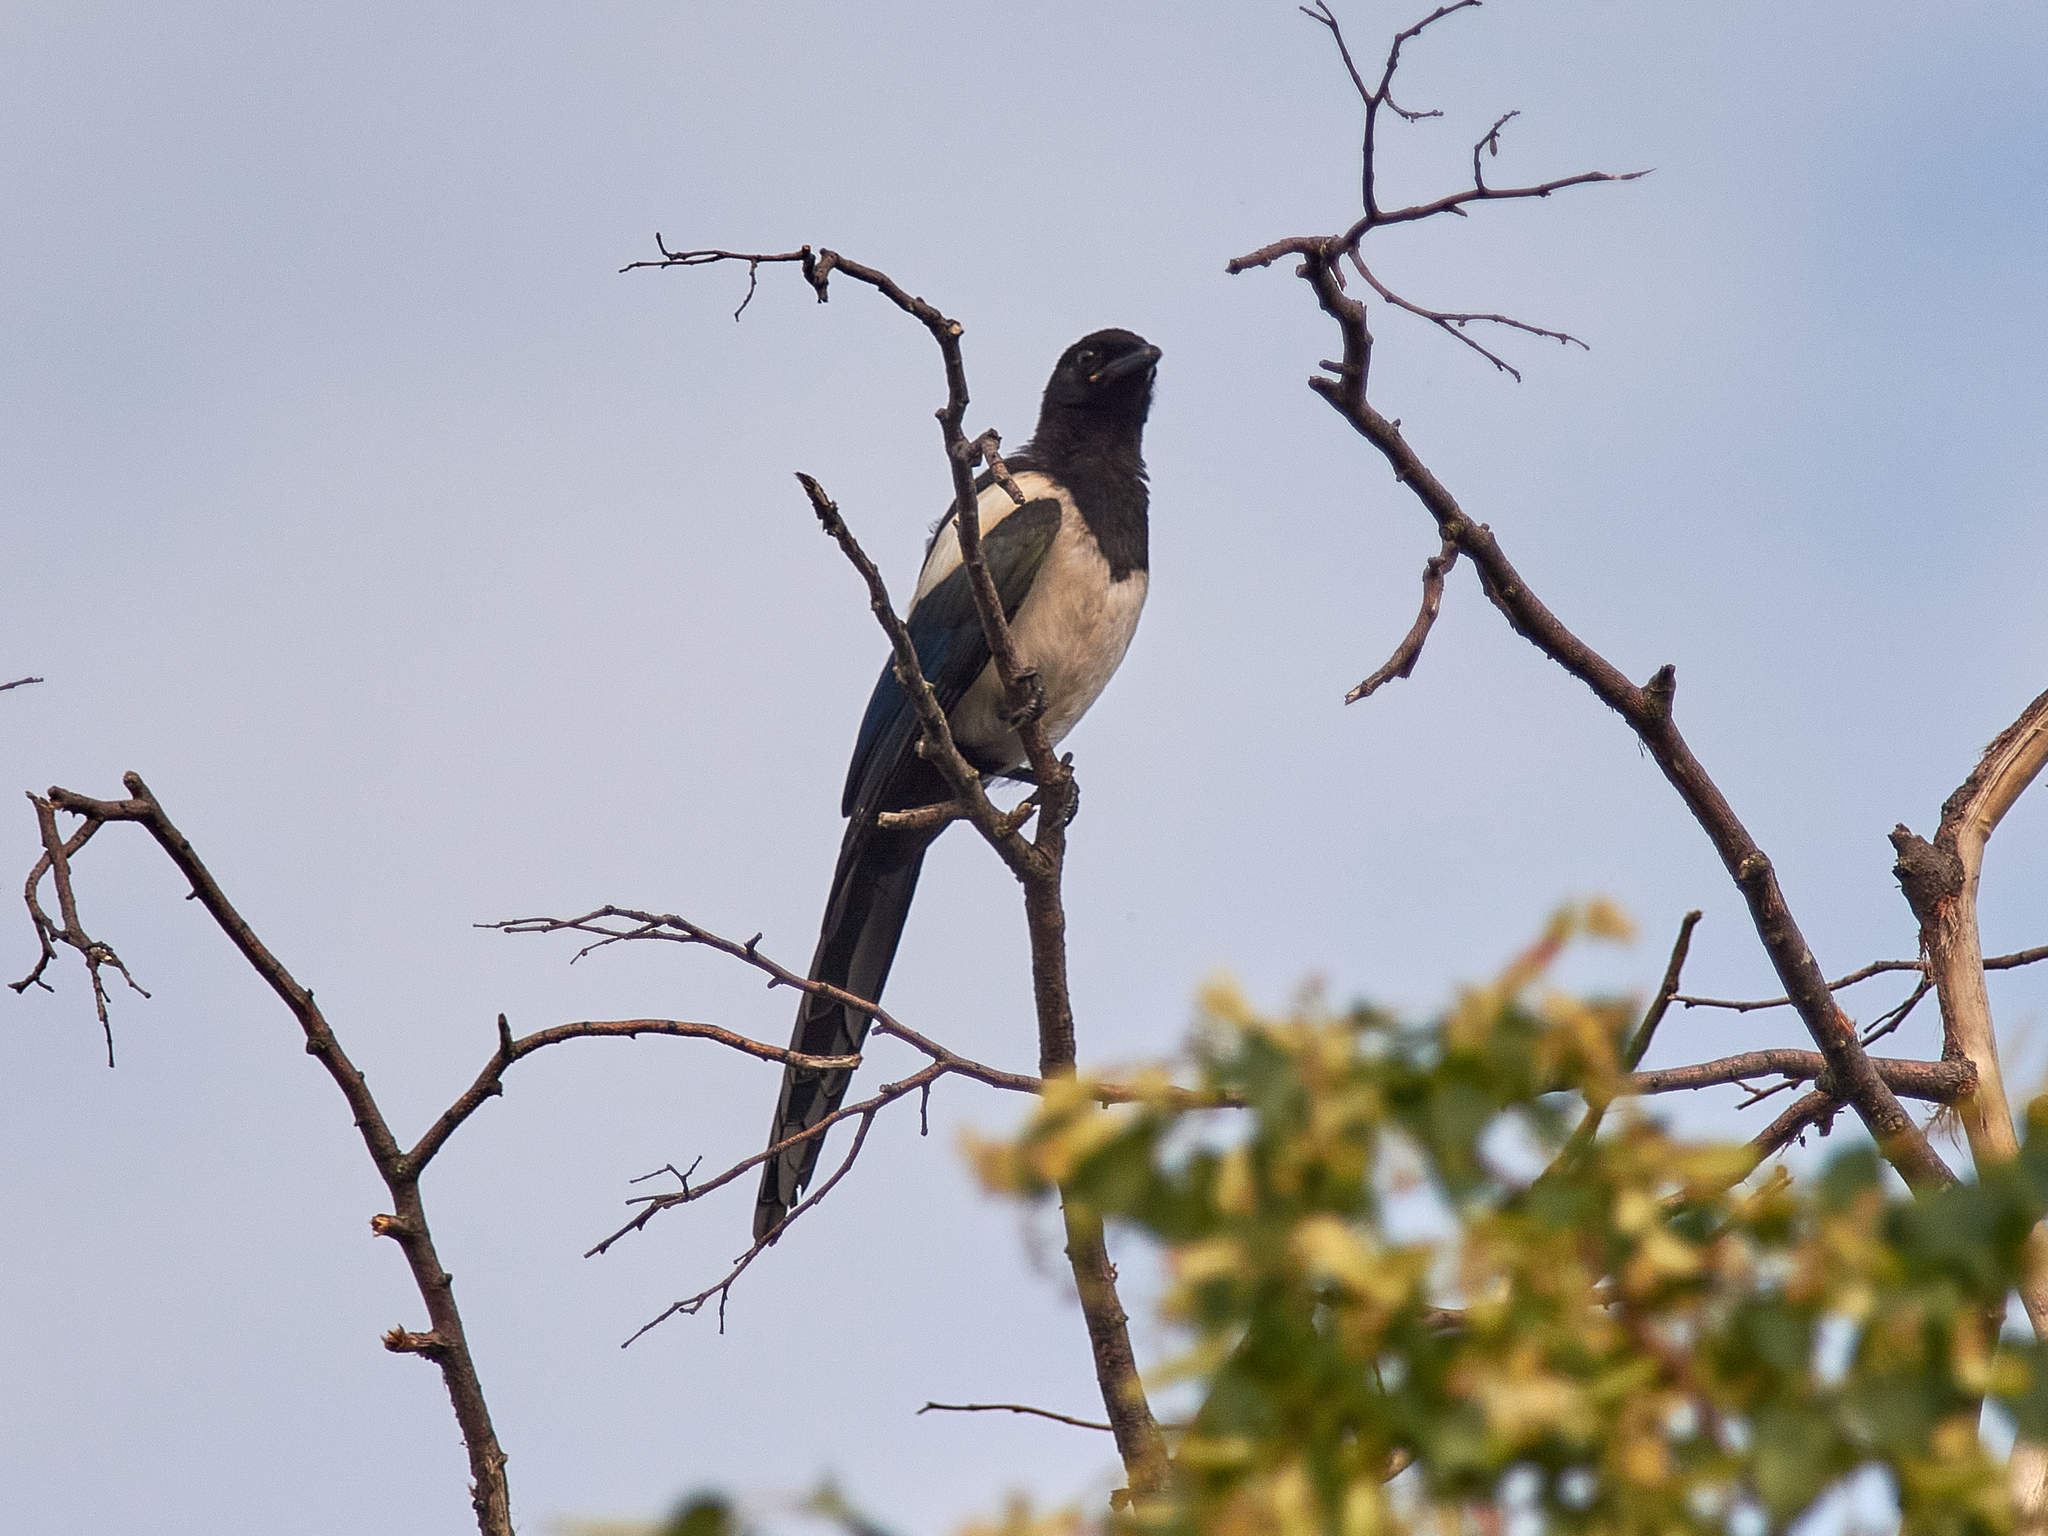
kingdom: Animalia
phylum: Chordata
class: Aves
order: Passeriformes
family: Corvidae
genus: Pica
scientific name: Pica pica
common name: Eurasian magpie
